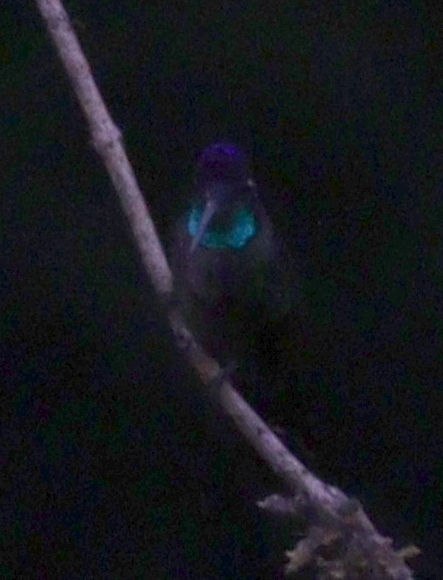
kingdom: Animalia
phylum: Chordata
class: Aves
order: Apodiformes
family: Trochilidae
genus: Eugenes
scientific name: Eugenes spectabilis
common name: Talamanca hummingbird
